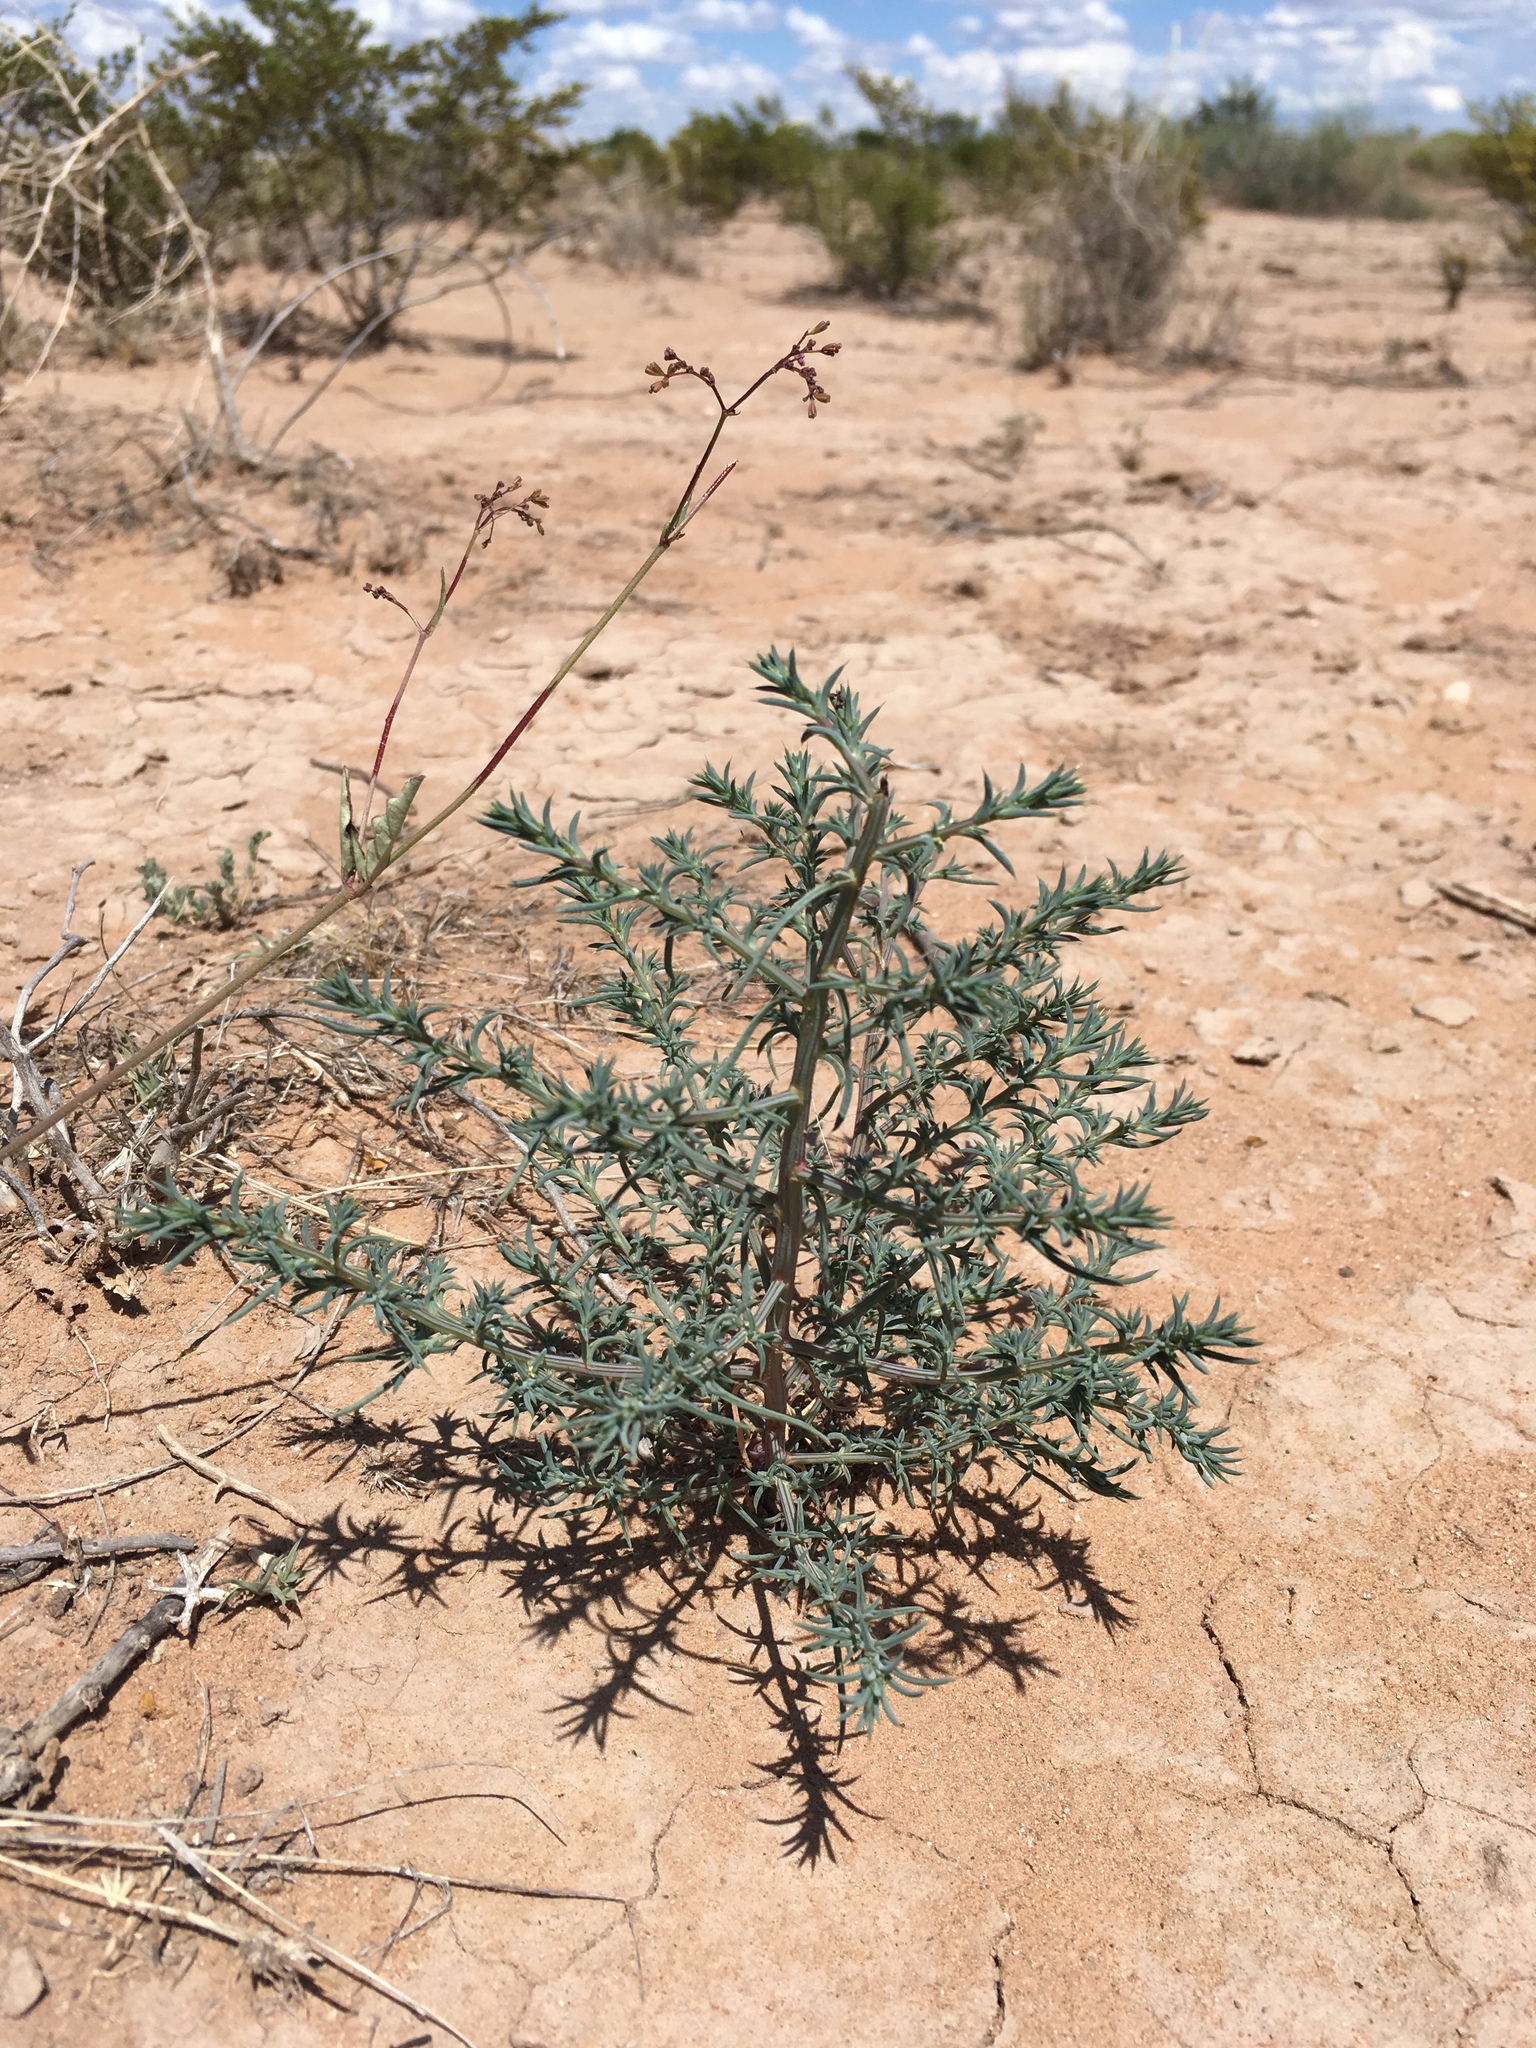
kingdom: Plantae
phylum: Tracheophyta
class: Magnoliopsida
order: Caryophyllales
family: Amaranthaceae
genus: Salsola
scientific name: Salsola tragus
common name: Prickly russian thistle
